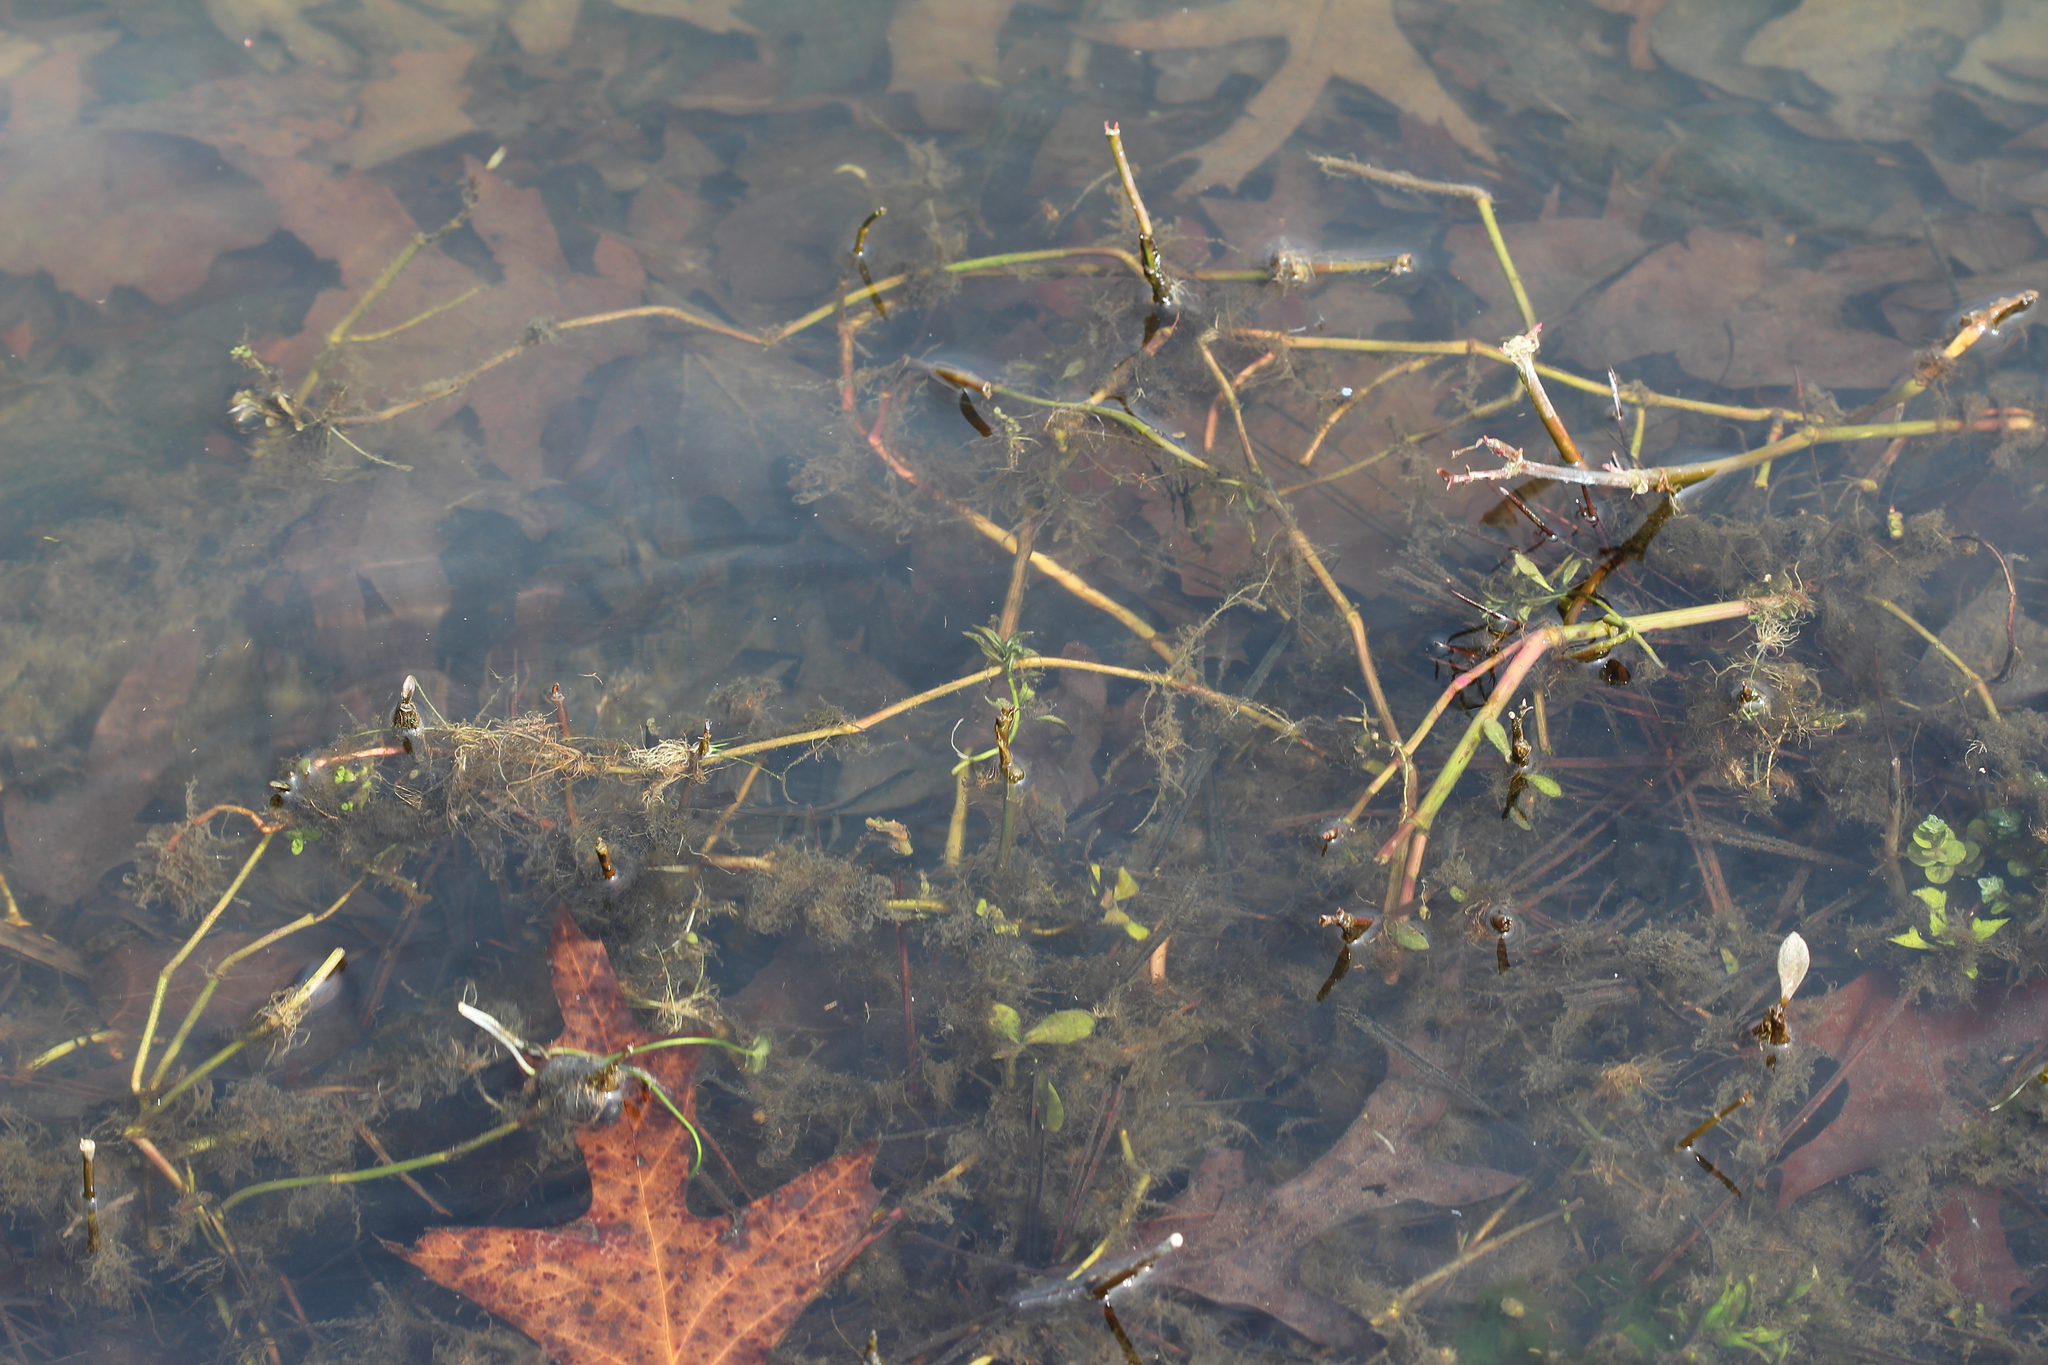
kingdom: Plantae
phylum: Tracheophyta
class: Magnoliopsida
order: Caryophyllales
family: Amaranthaceae
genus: Alternanthera
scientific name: Alternanthera philoxeroides
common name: Alligatorweed
